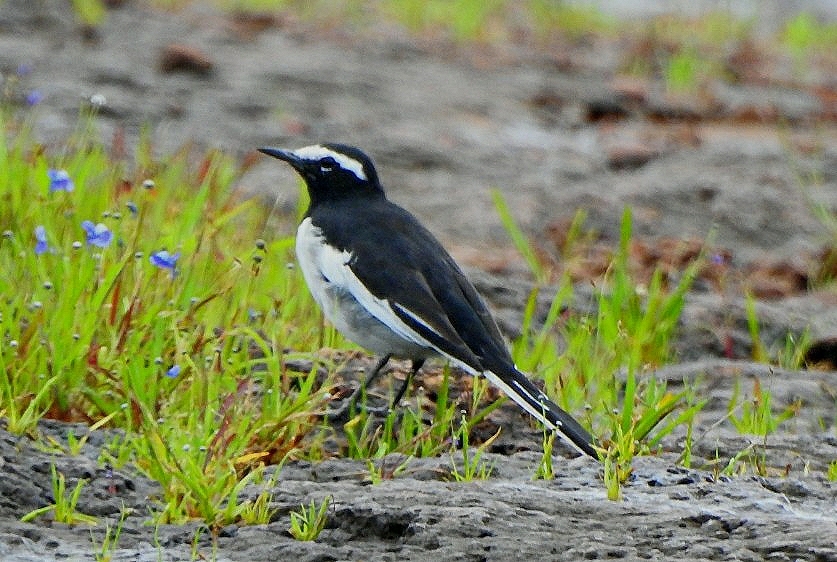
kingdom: Animalia
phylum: Chordata
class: Aves
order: Passeriformes
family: Motacillidae
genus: Motacilla
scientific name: Motacilla maderaspatensis
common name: White-browed wagtail
